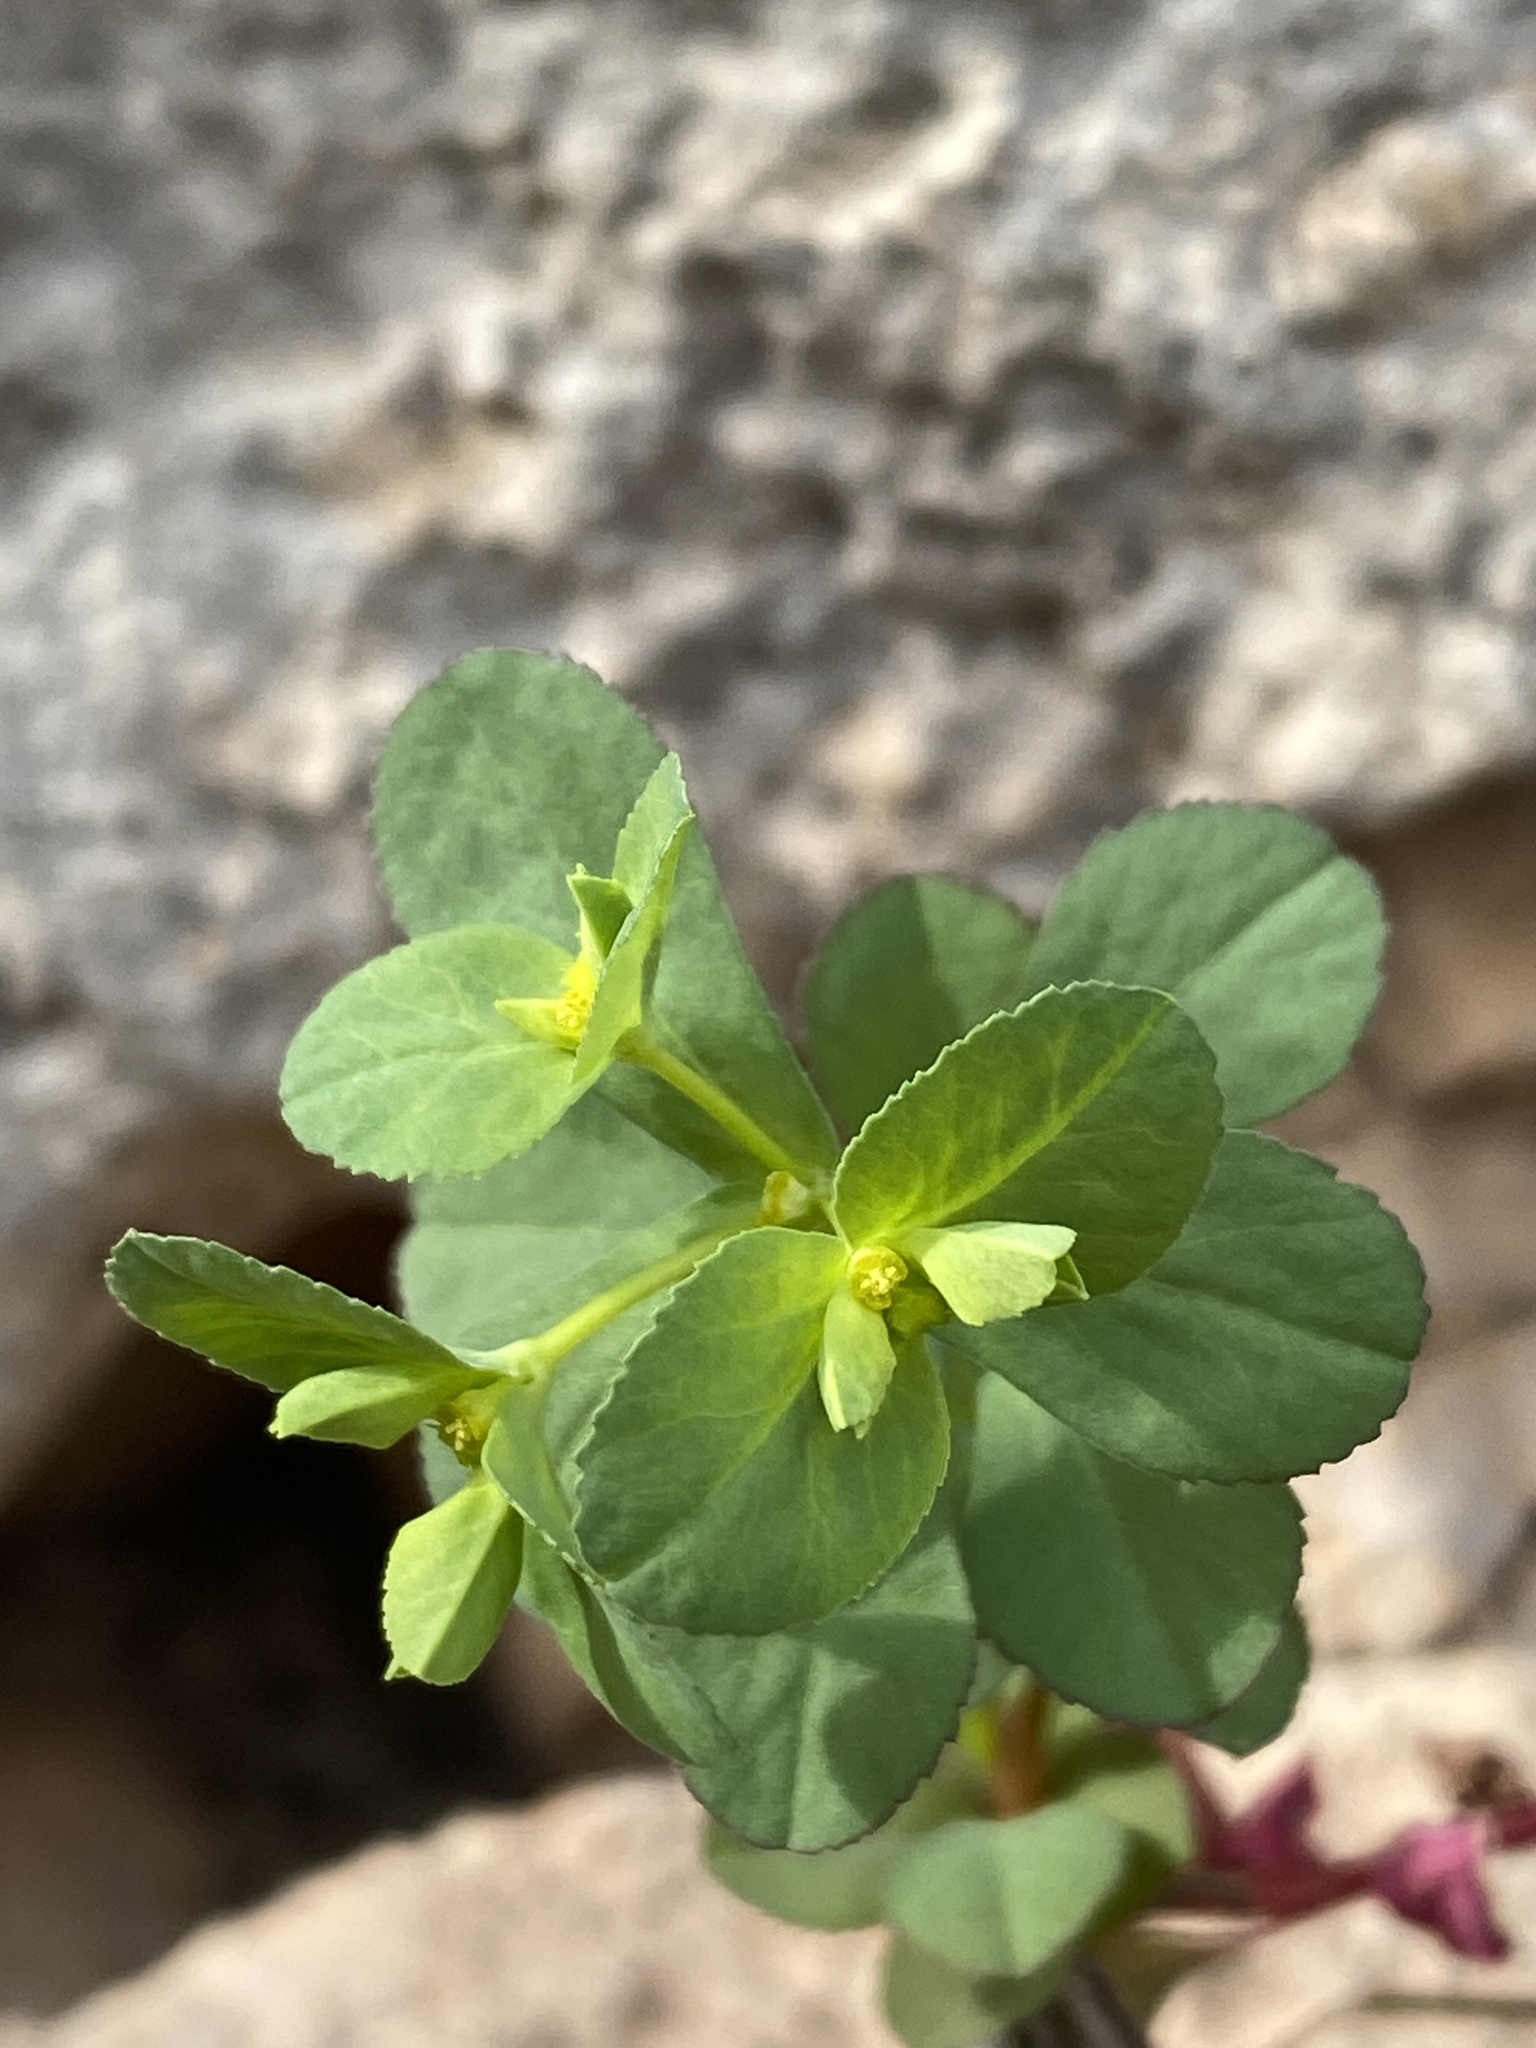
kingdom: Plantae
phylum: Tracheophyta
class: Magnoliopsida
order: Malpighiales
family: Euphorbiaceae
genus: Euphorbia
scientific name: Euphorbia spathulata
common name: Blunt spurge
